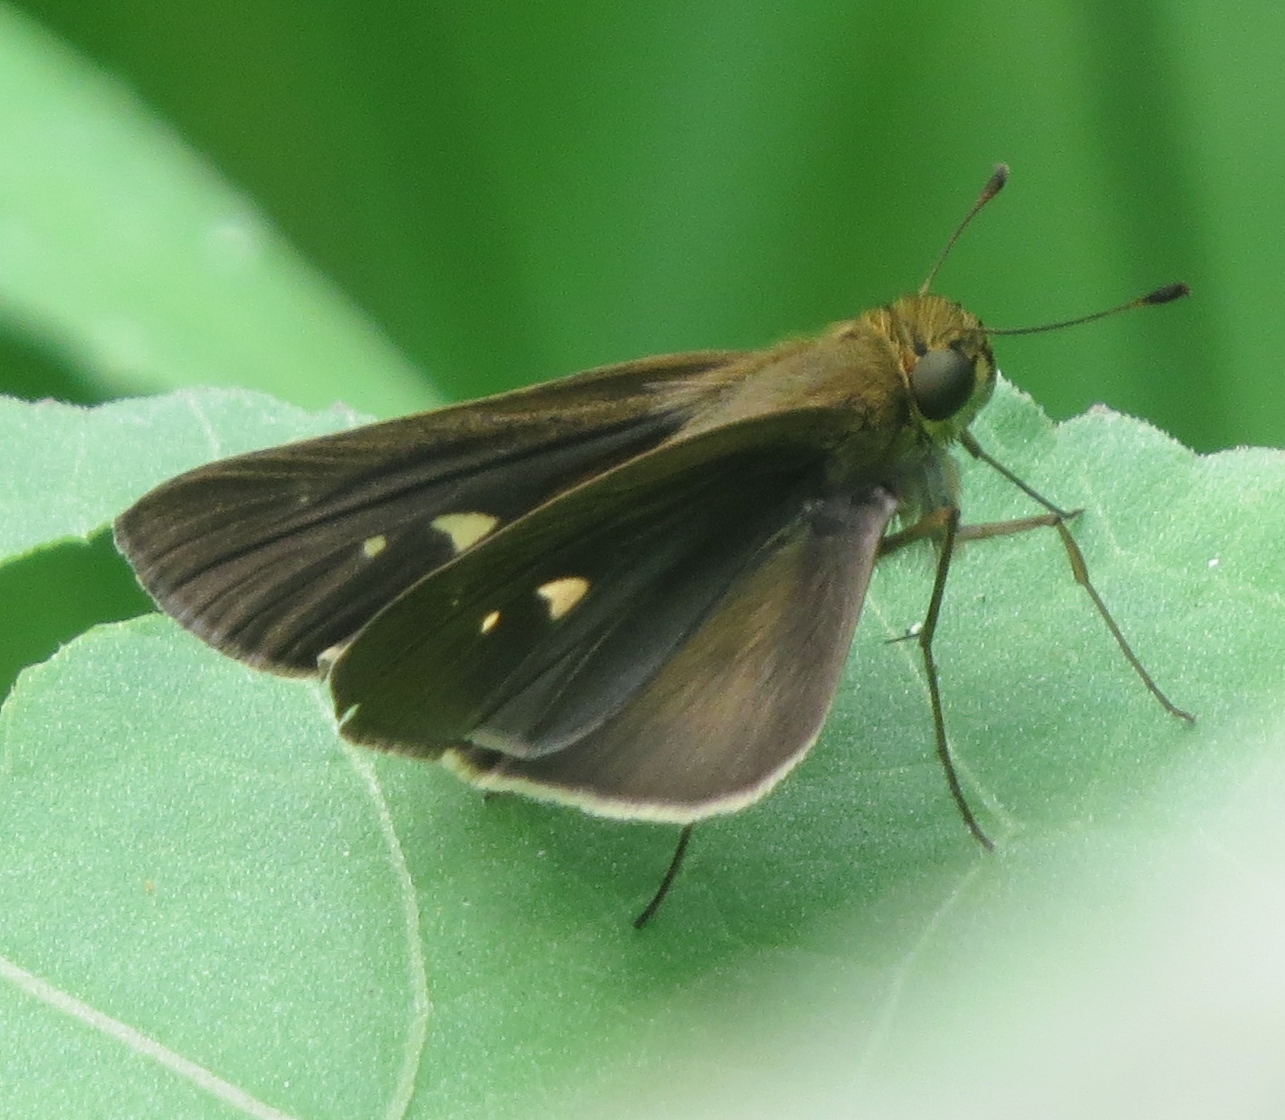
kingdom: Animalia
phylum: Arthropoda
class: Insecta
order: Lepidoptera
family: Hesperiidae
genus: Panoquina
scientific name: Panoquina ocola
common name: Ocola skipper
